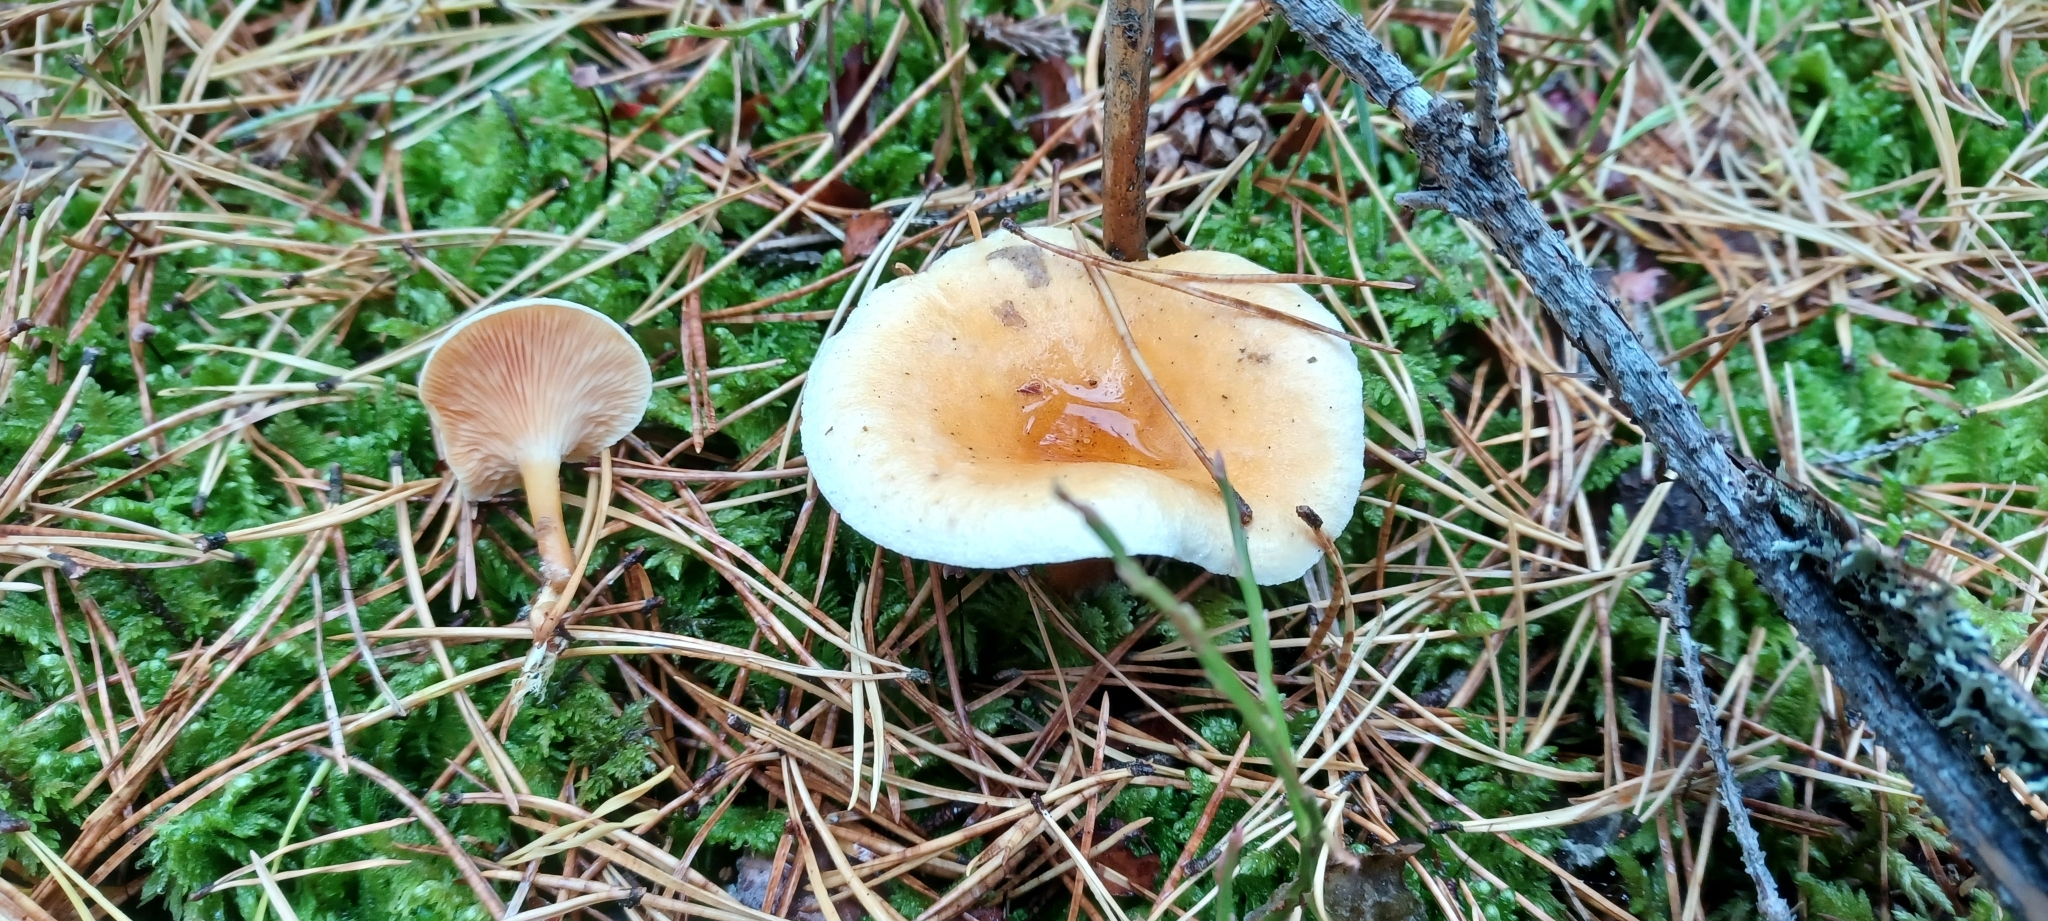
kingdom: Fungi
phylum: Basidiomycota
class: Agaricomycetes
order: Boletales
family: Hygrophoropsidaceae
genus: Hygrophoropsis
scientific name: Hygrophoropsis aurantiaca
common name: False chanterelle
